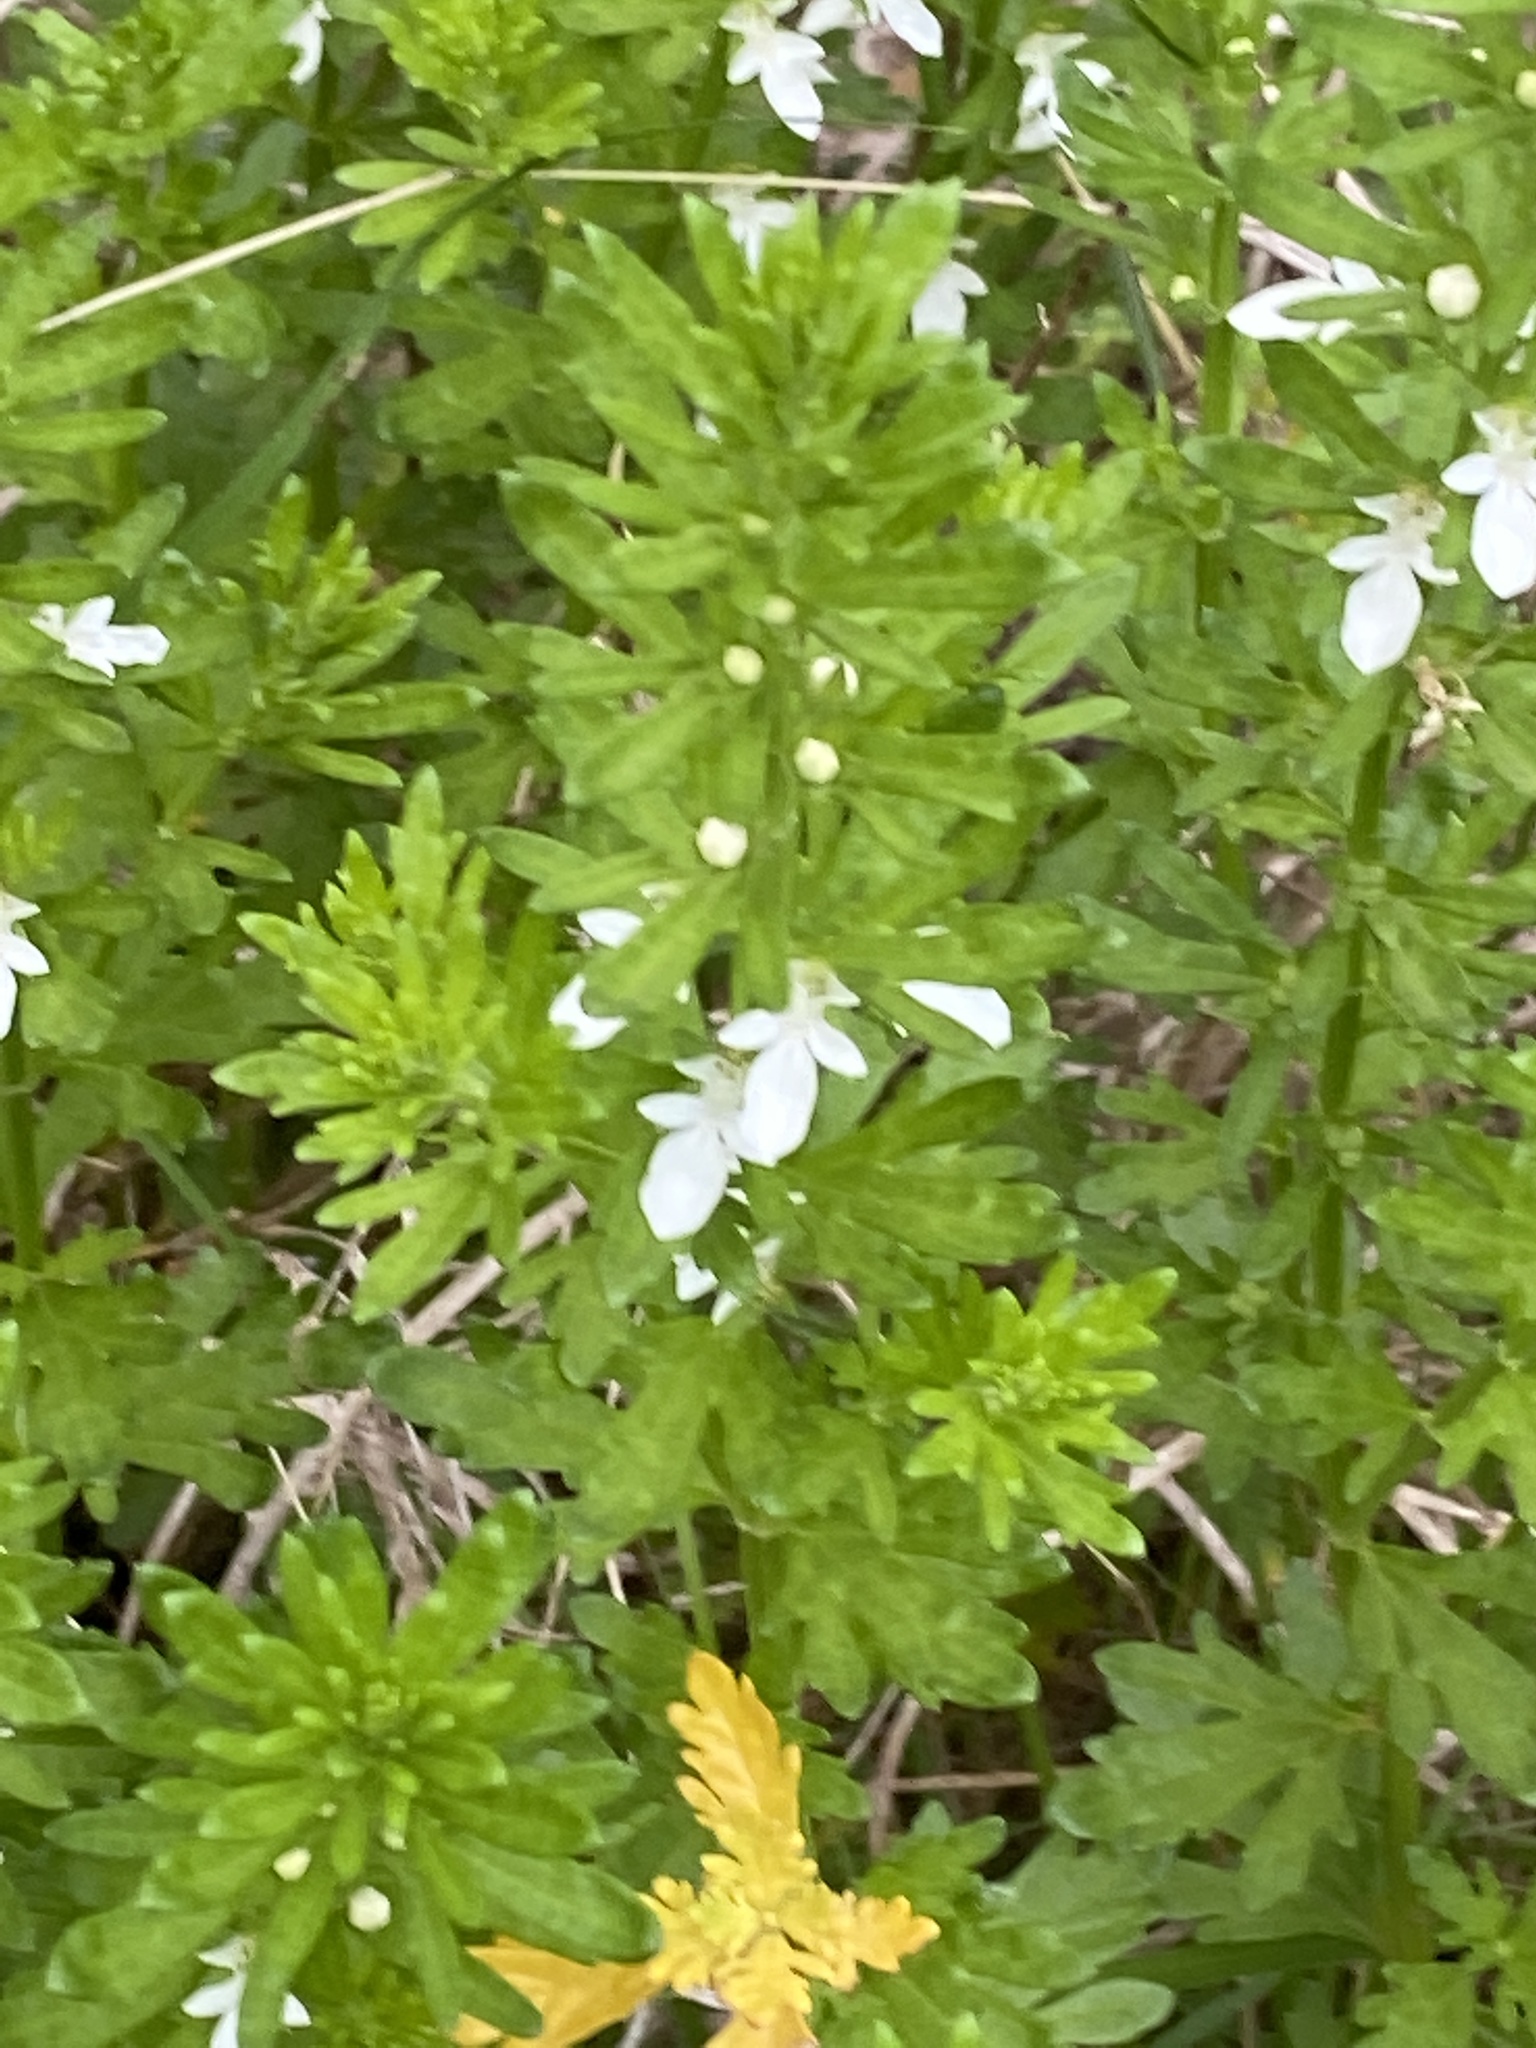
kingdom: Plantae
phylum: Tracheophyta
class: Magnoliopsida
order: Lamiales
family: Lamiaceae
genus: Teucrium
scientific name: Teucrium cubense
